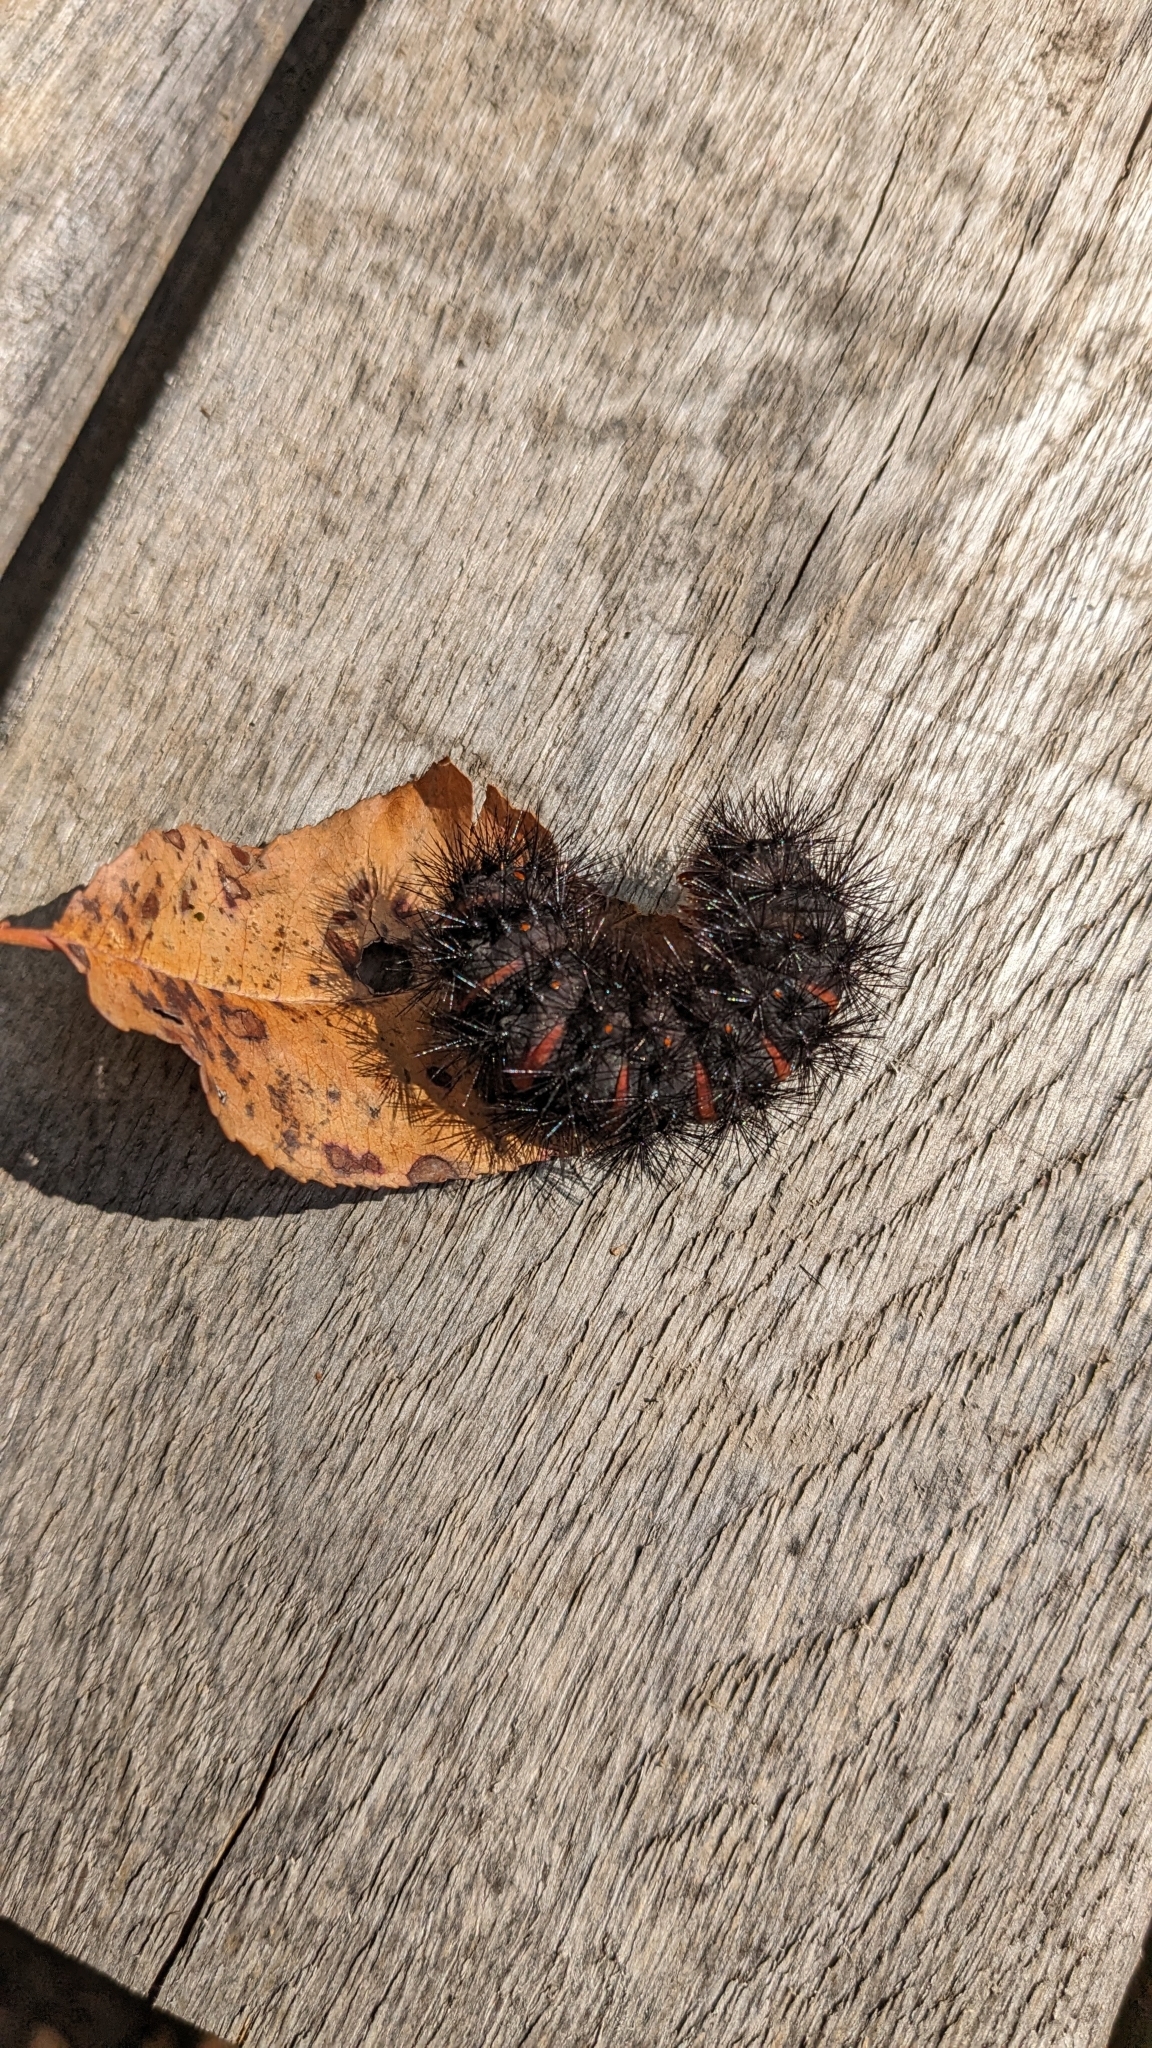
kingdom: Animalia
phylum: Arthropoda
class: Insecta
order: Lepidoptera
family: Erebidae
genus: Hypercompe
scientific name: Hypercompe scribonia
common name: Giant leopard moth
